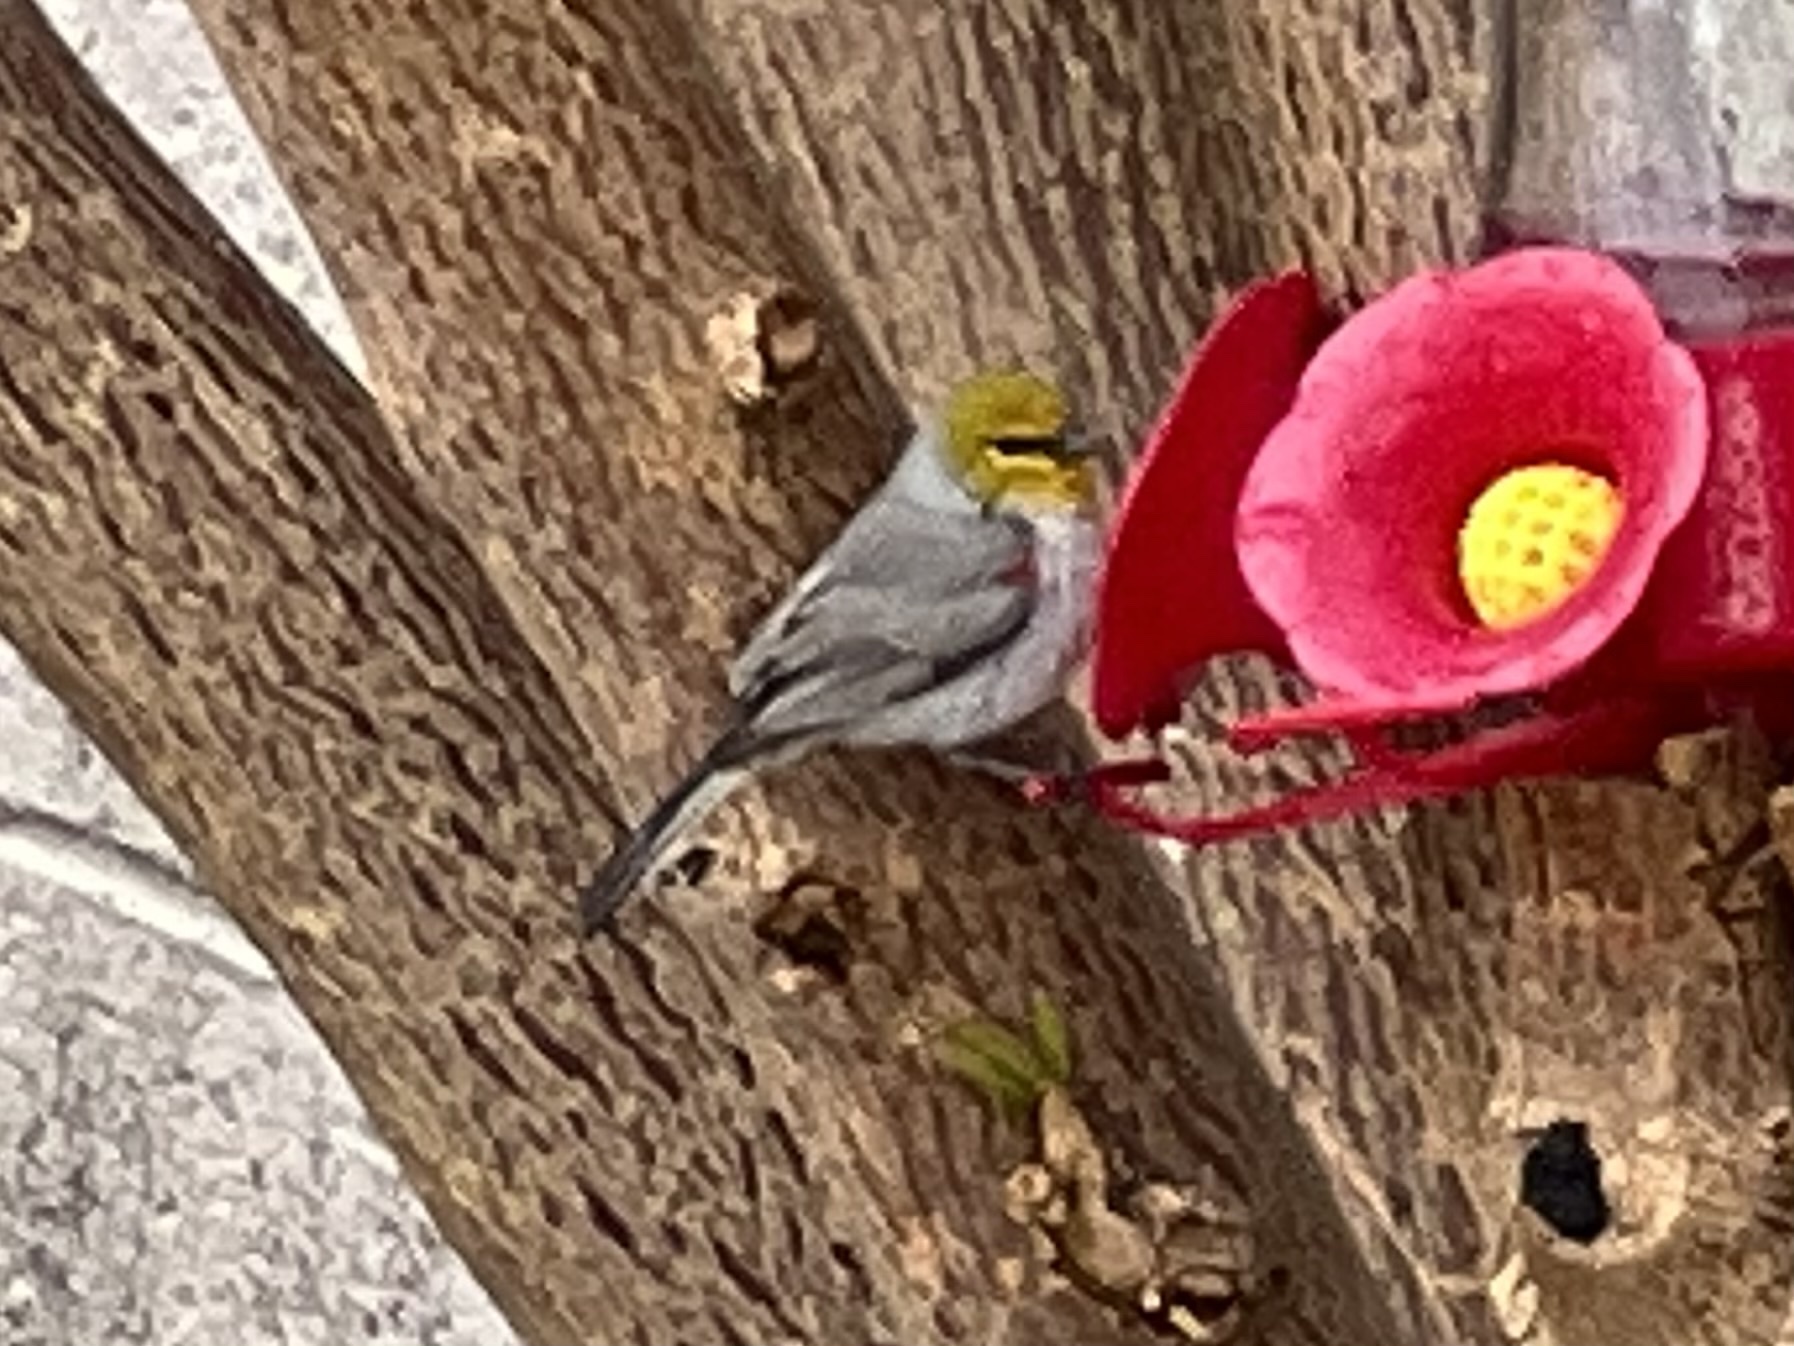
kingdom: Animalia
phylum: Chordata
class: Aves
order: Passeriformes
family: Remizidae
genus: Auriparus
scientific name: Auriparus flaviceps
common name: Verdin
